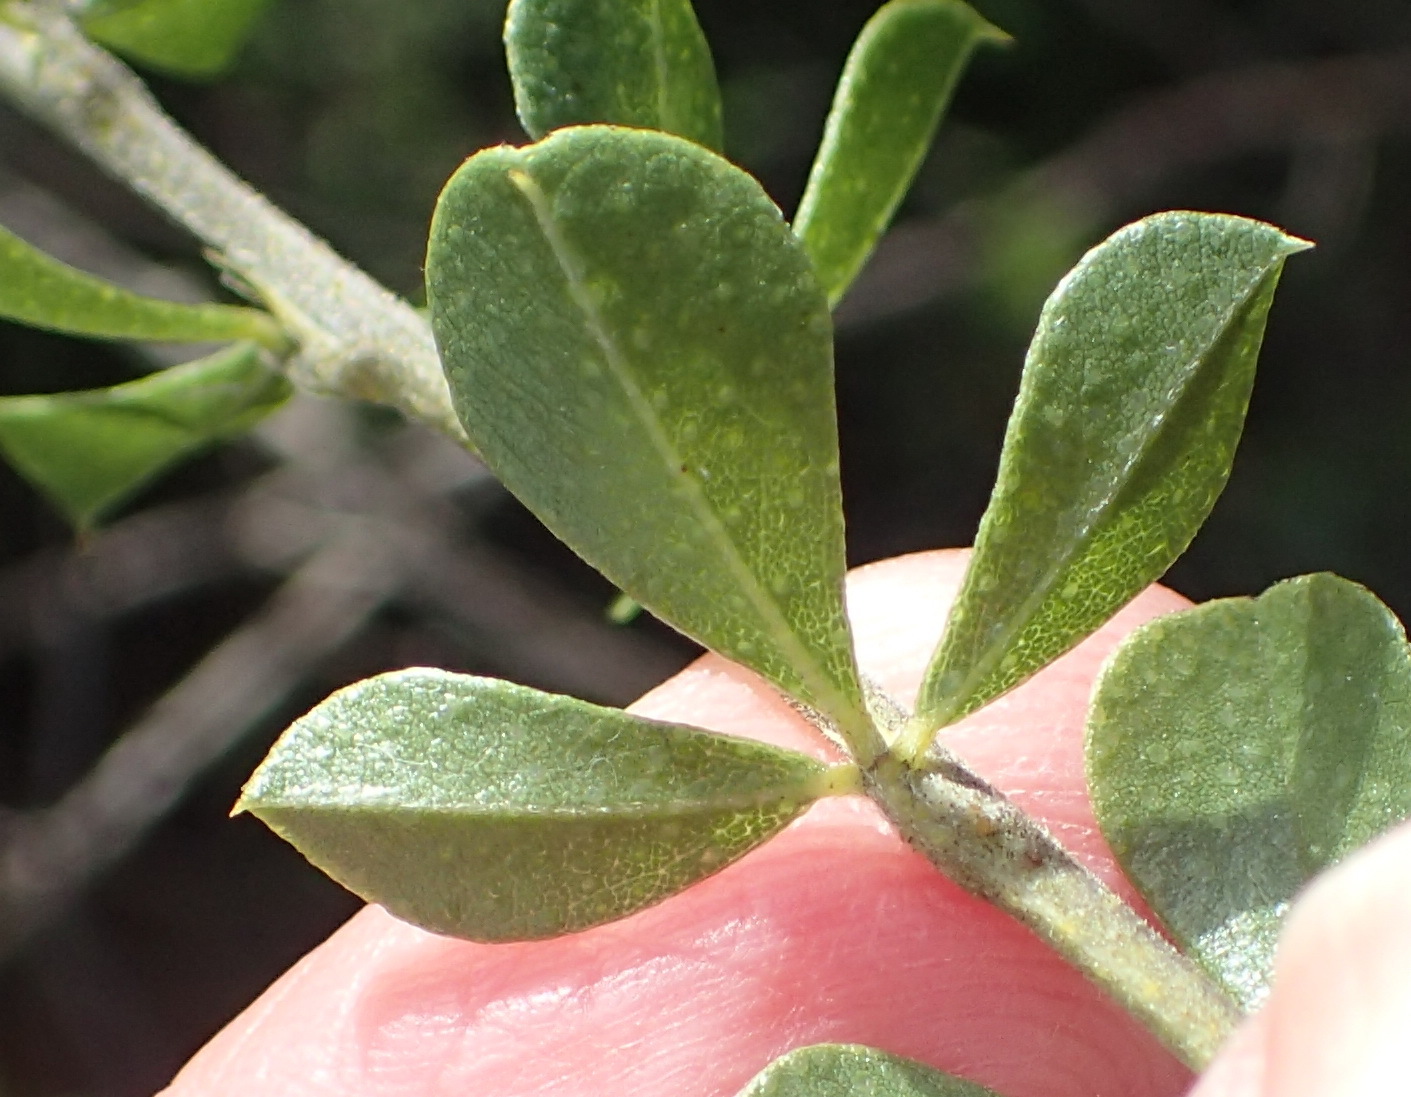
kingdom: Plantae
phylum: Tracheophyta
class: Magnoliopsida
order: Fabales
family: Fabaceae
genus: Psoralea
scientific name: Psoralea bracteolata
